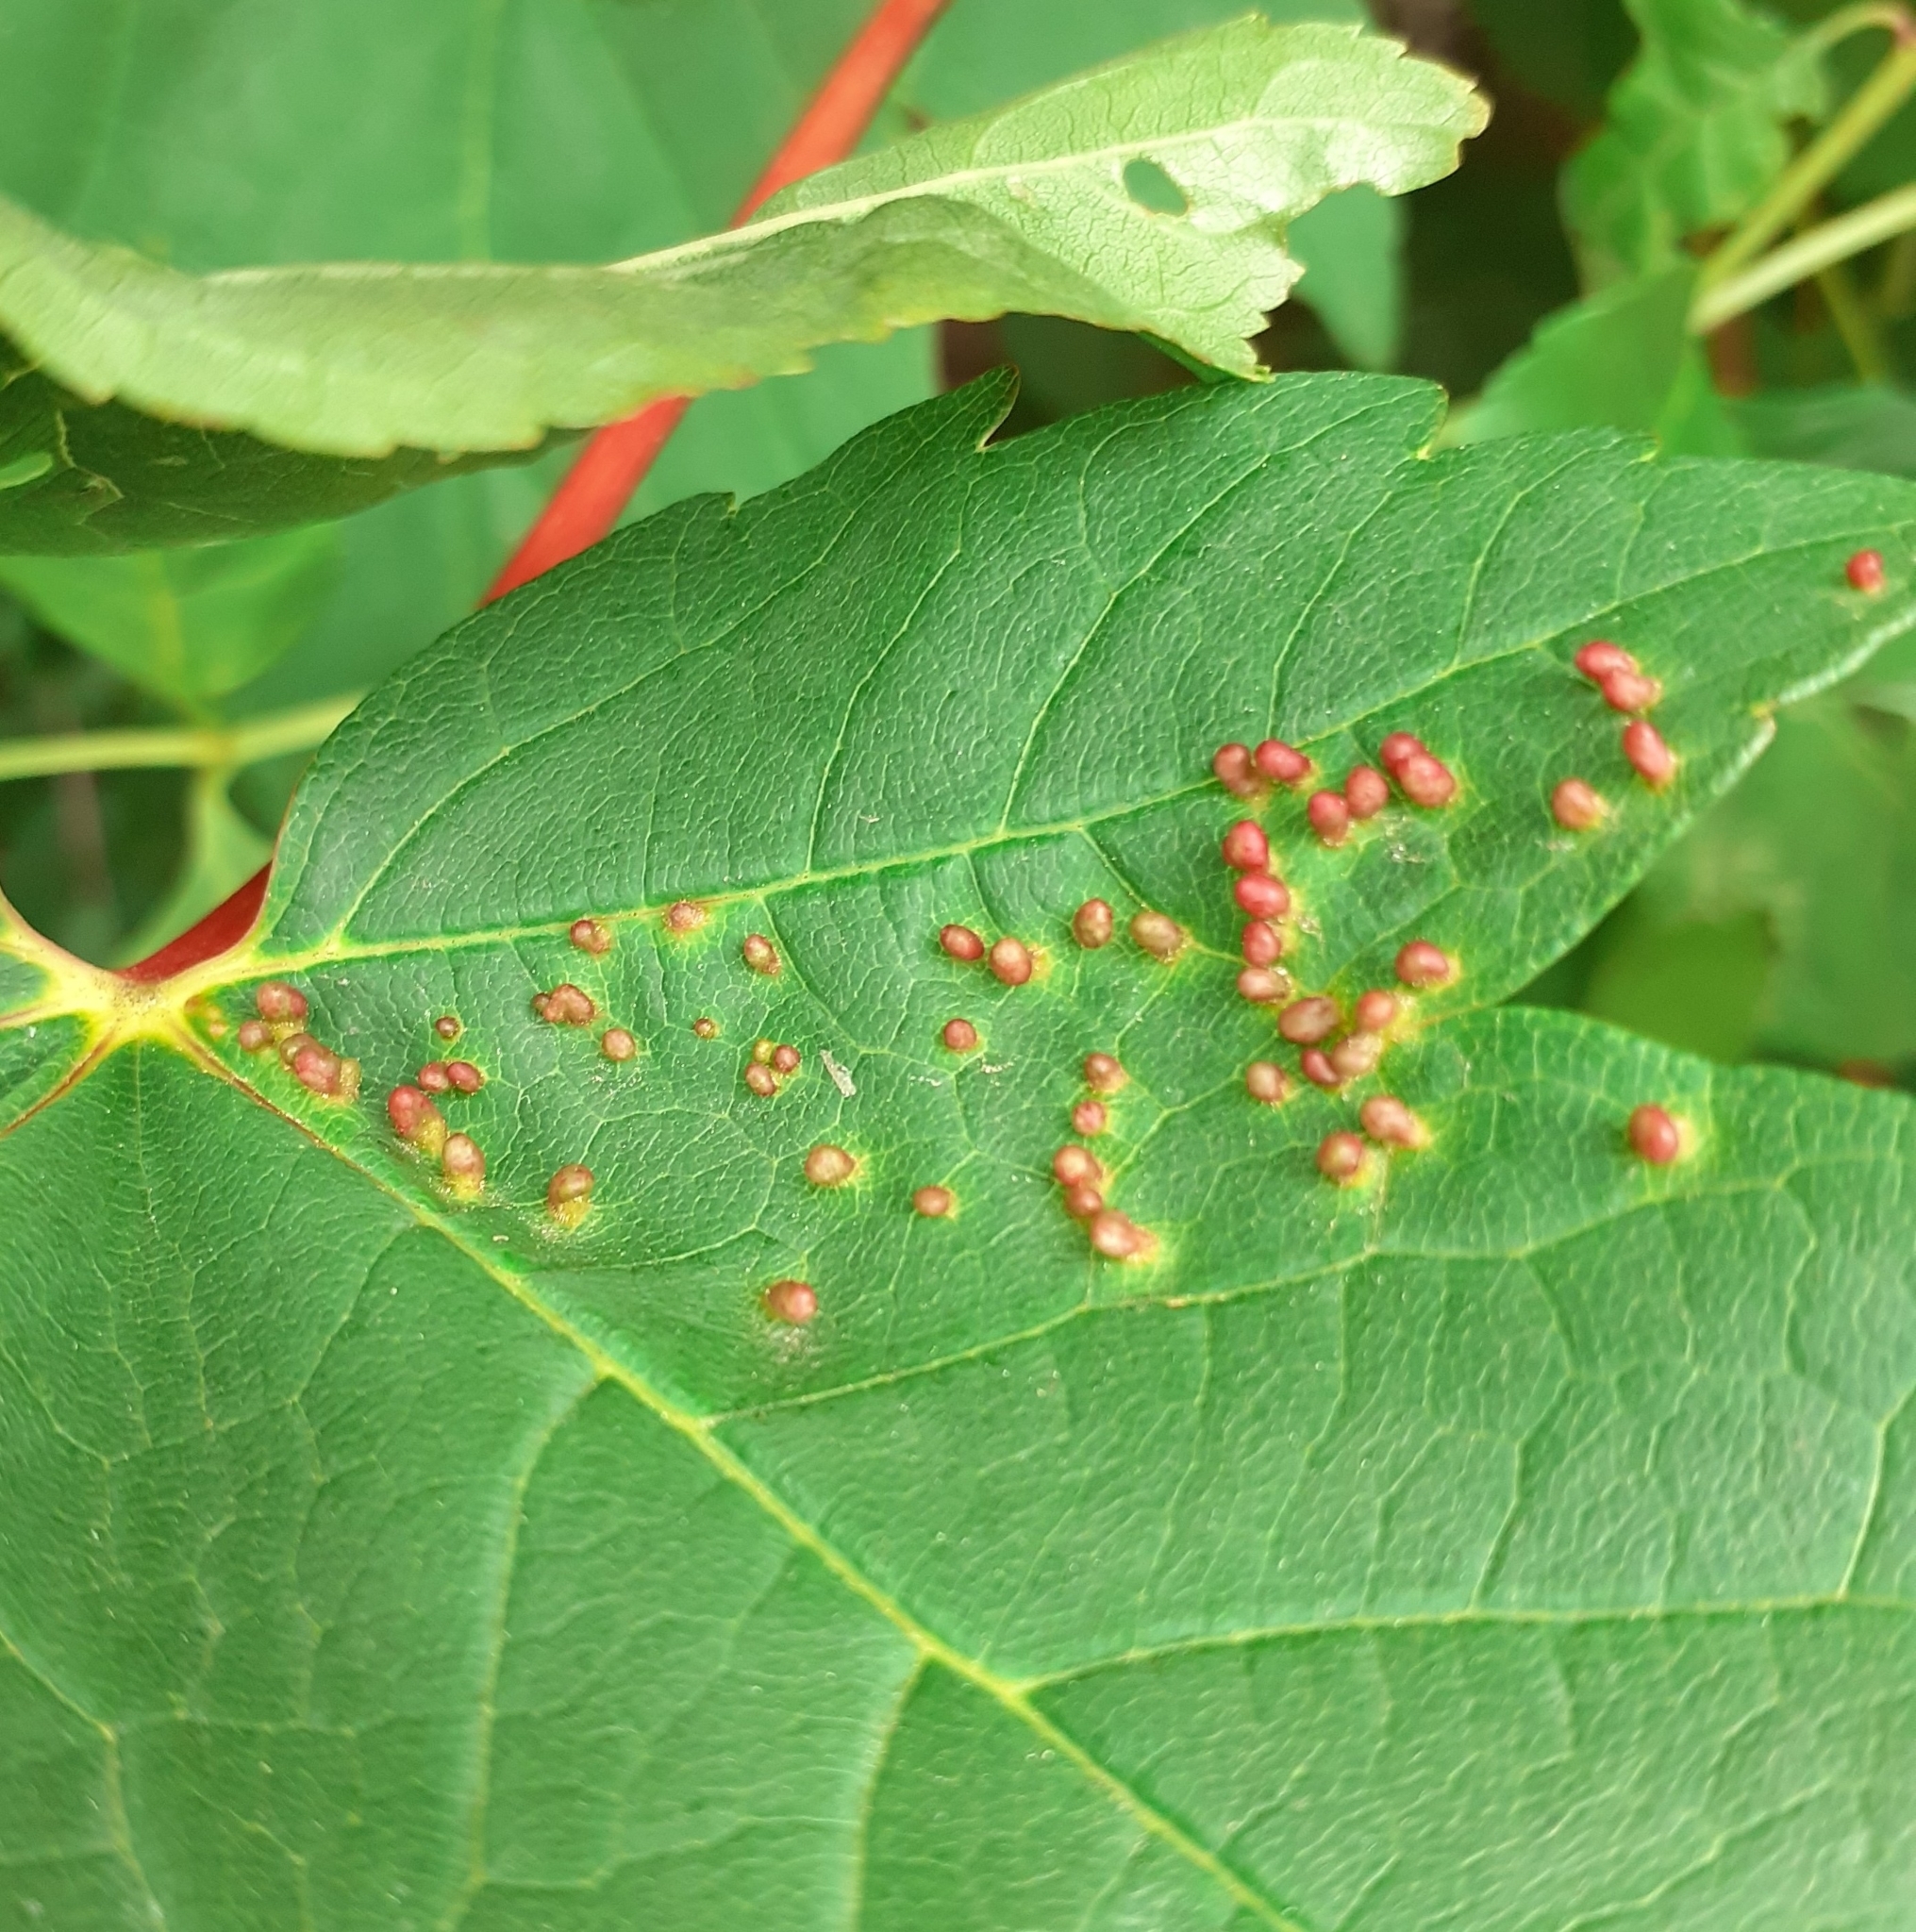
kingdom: Animalia
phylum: Arthropoda
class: Arachnida
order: Trombidiformes
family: Eriophyidae
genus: Aceria
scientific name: Aceria cephaloneus
